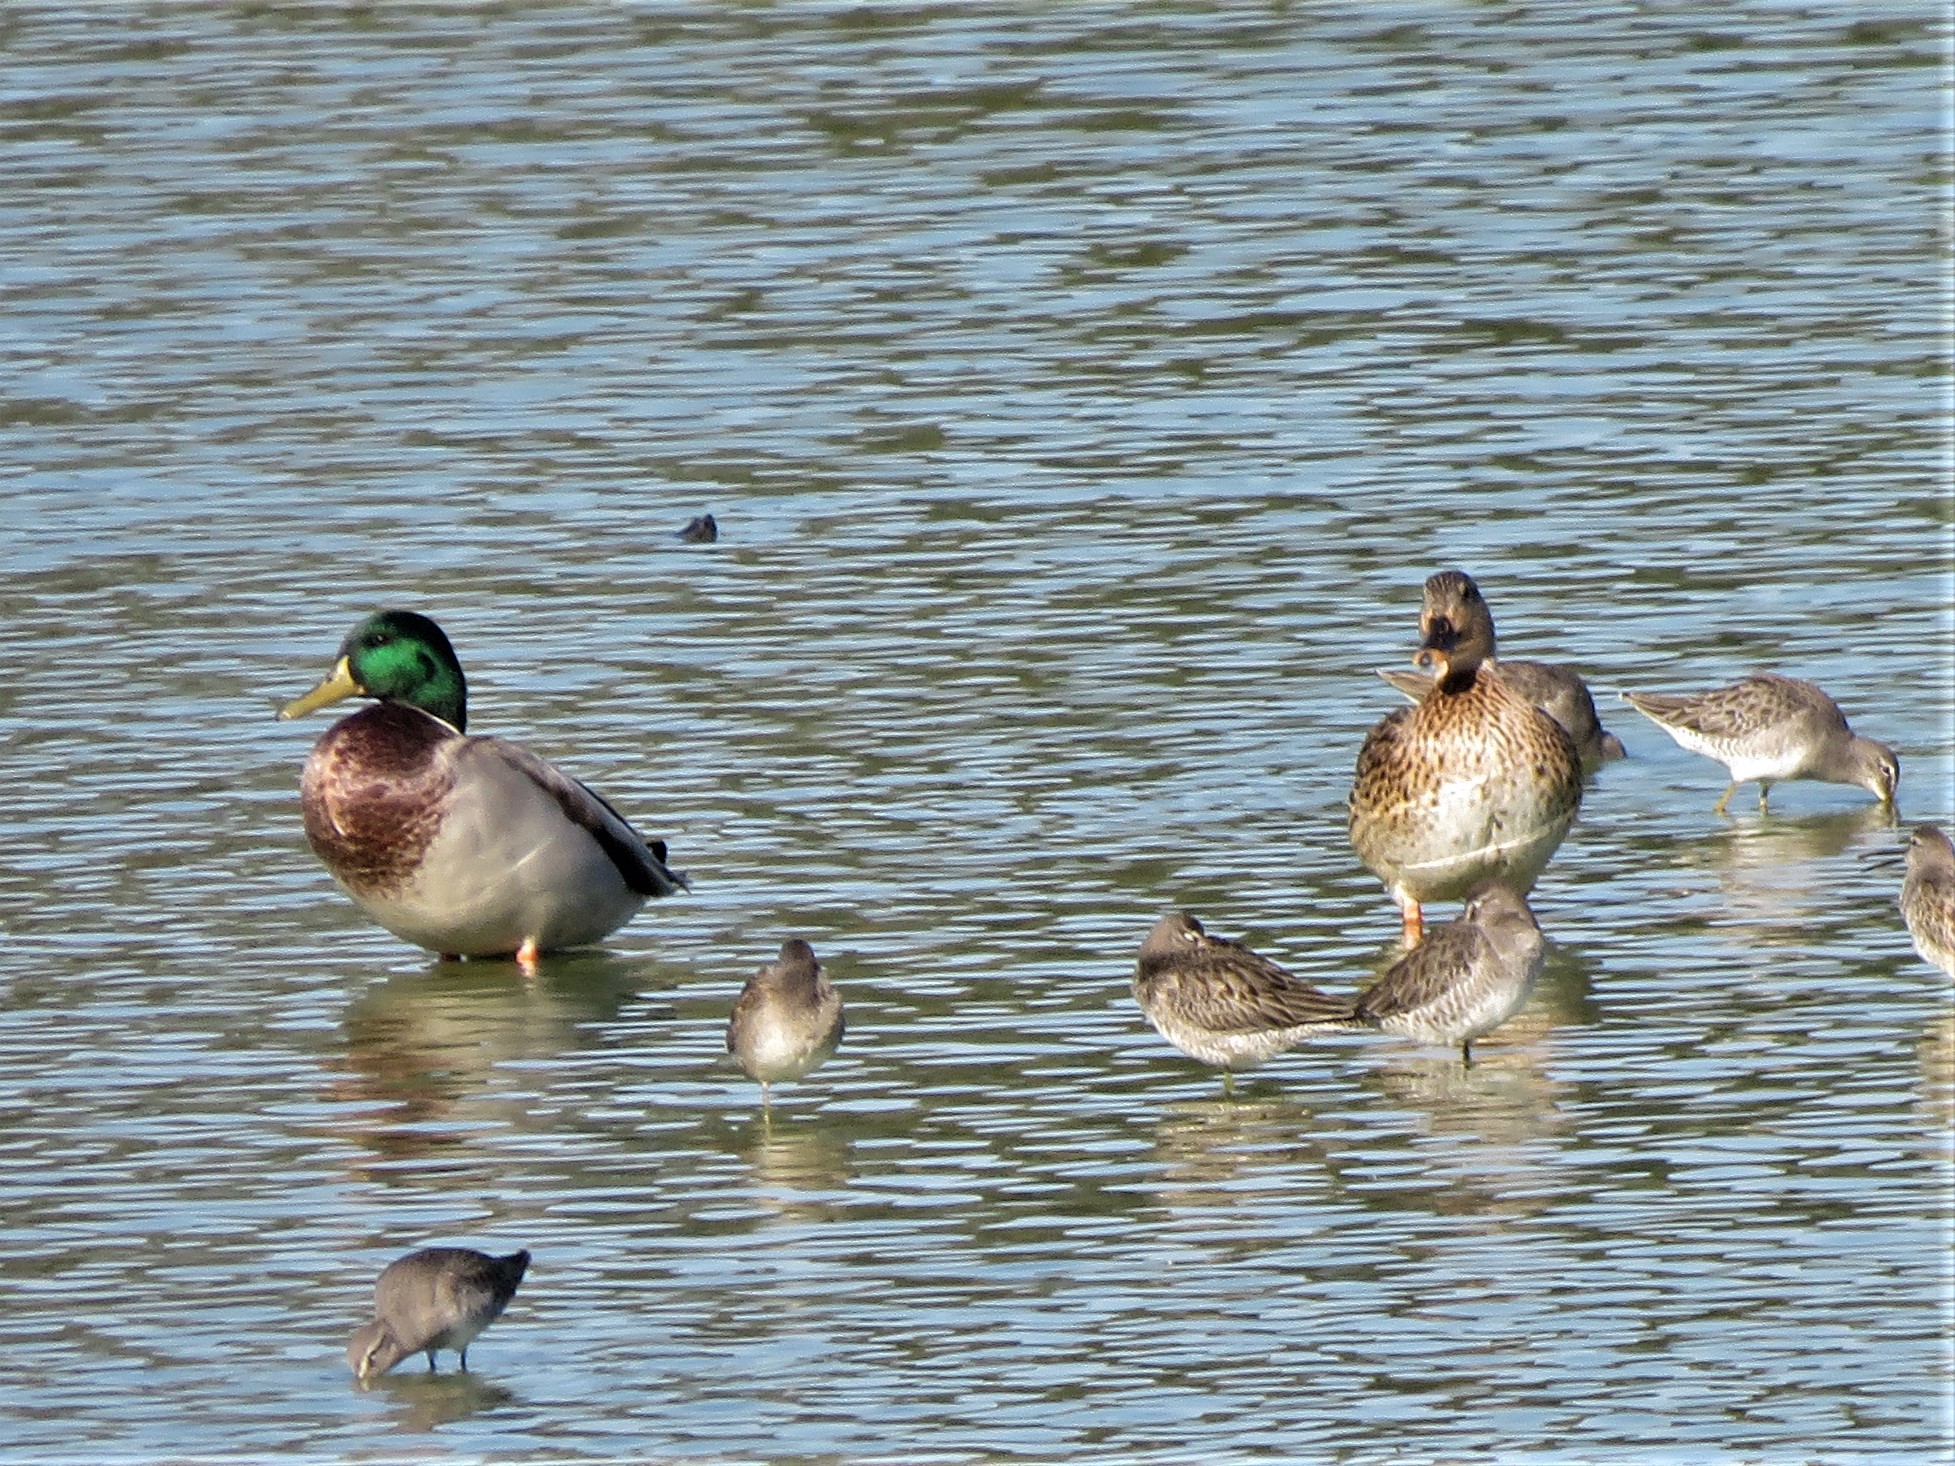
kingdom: Animalia
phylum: Chordata
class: Aves
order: Anseriformes
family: Anatidae
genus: Anas
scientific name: Anas platyrhynchos
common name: Mallard
